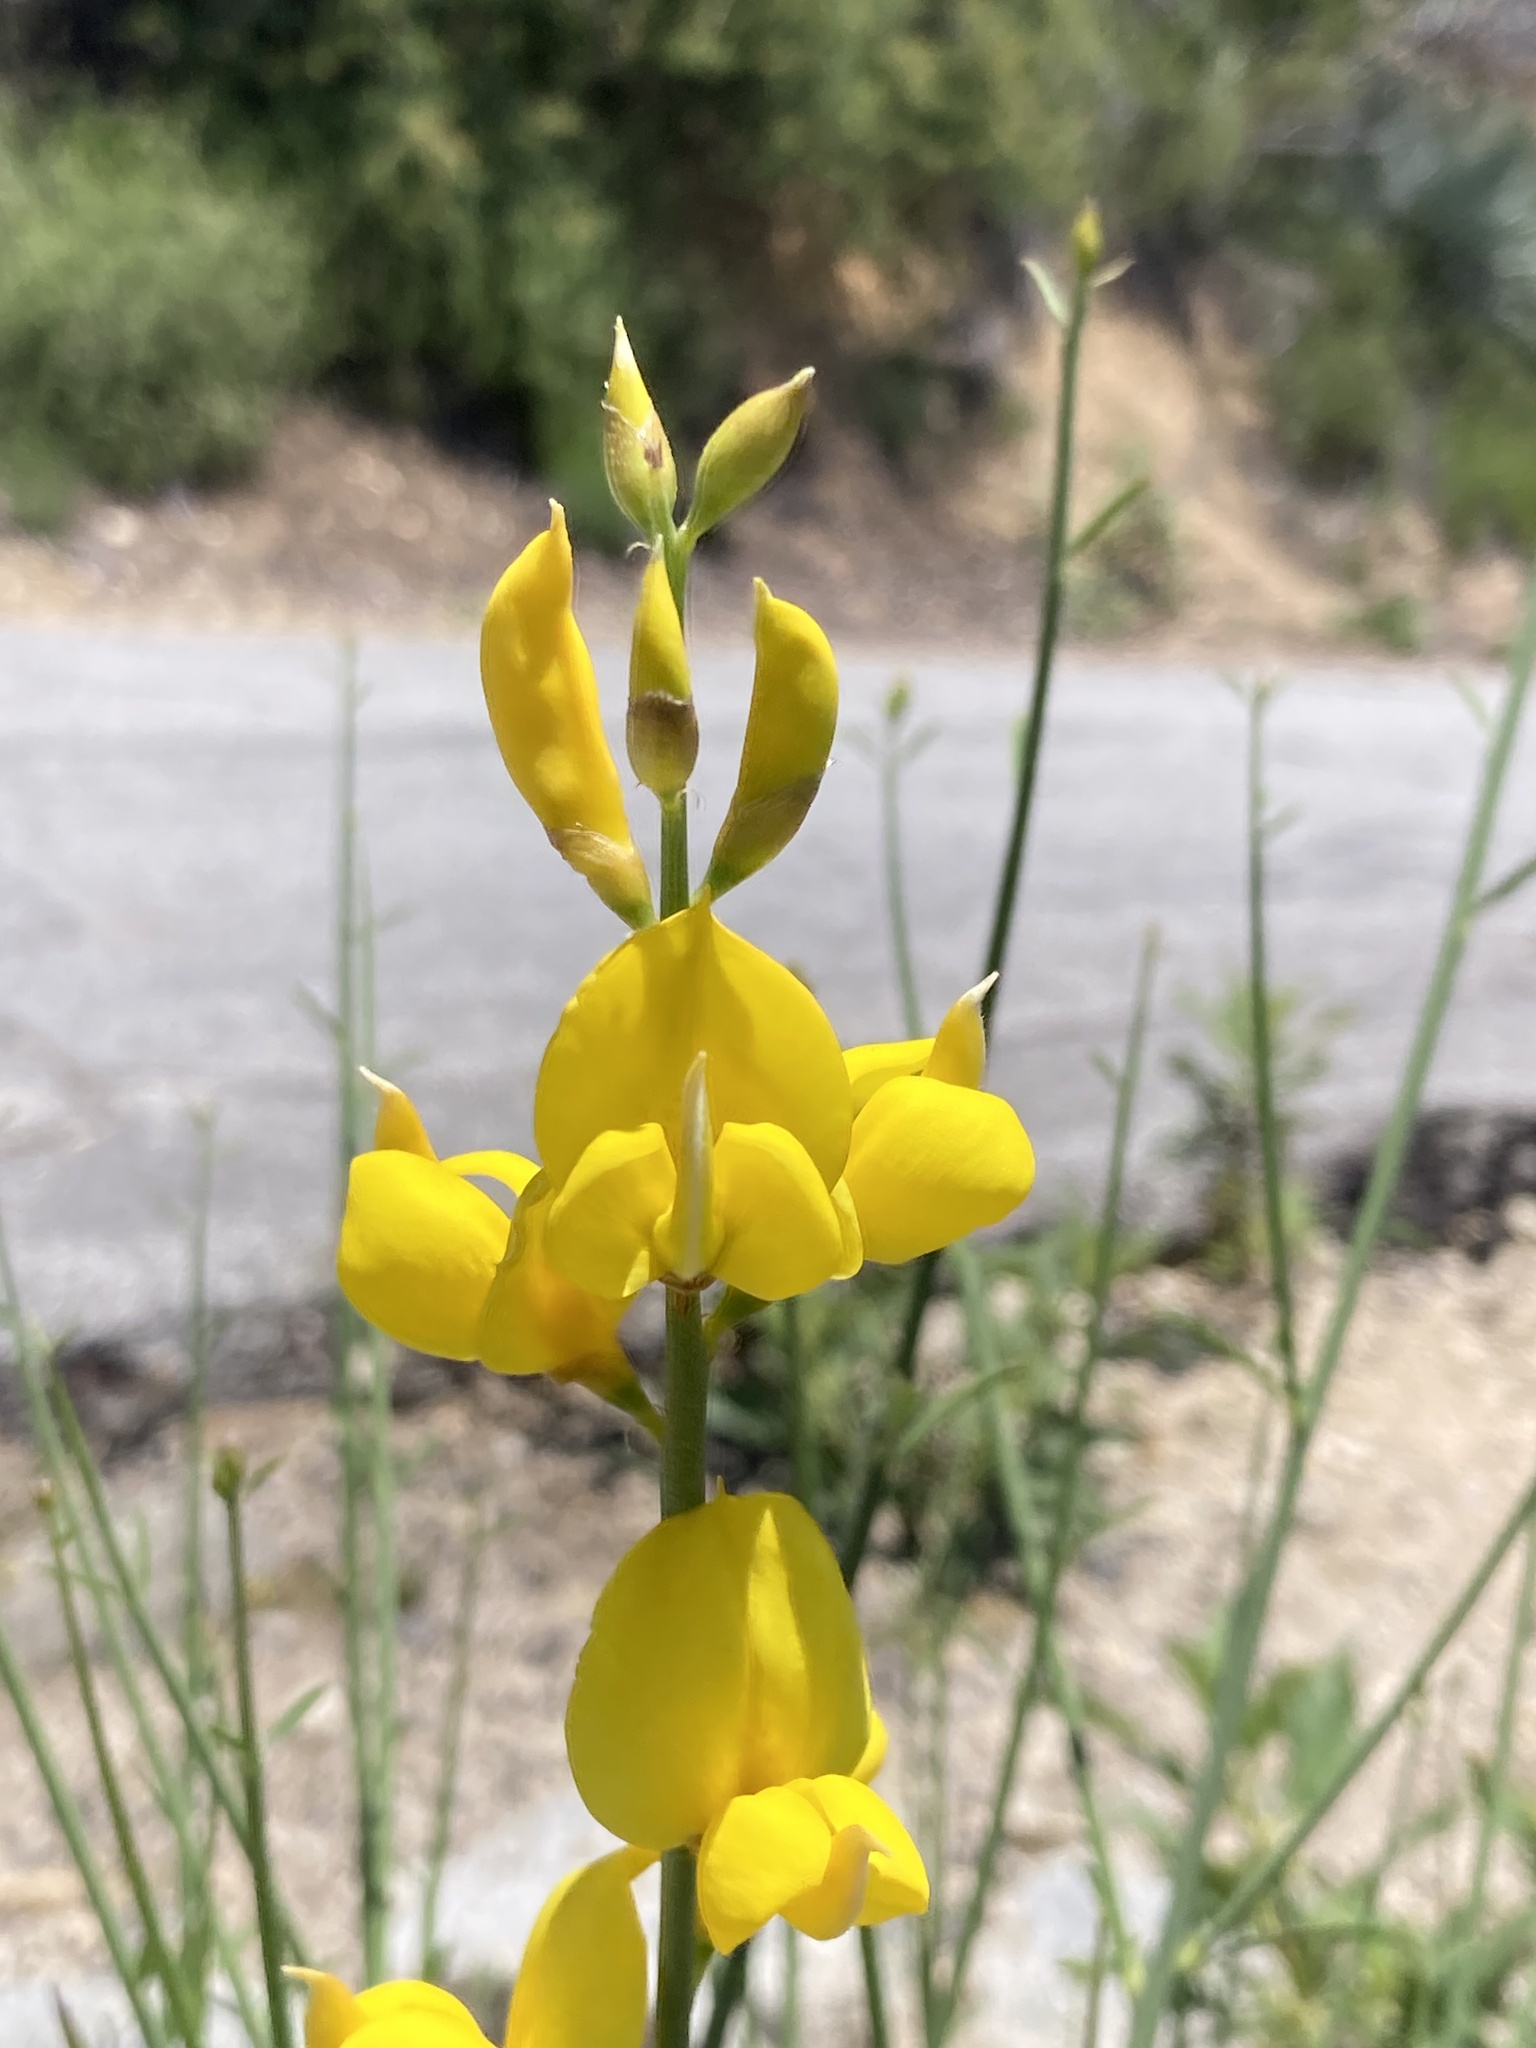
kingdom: Plantae
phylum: Tracheophyta
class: Magnoliopsida
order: Fabales
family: Fabaceae
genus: Spartium
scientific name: Spartium junceum
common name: Spanish broom
